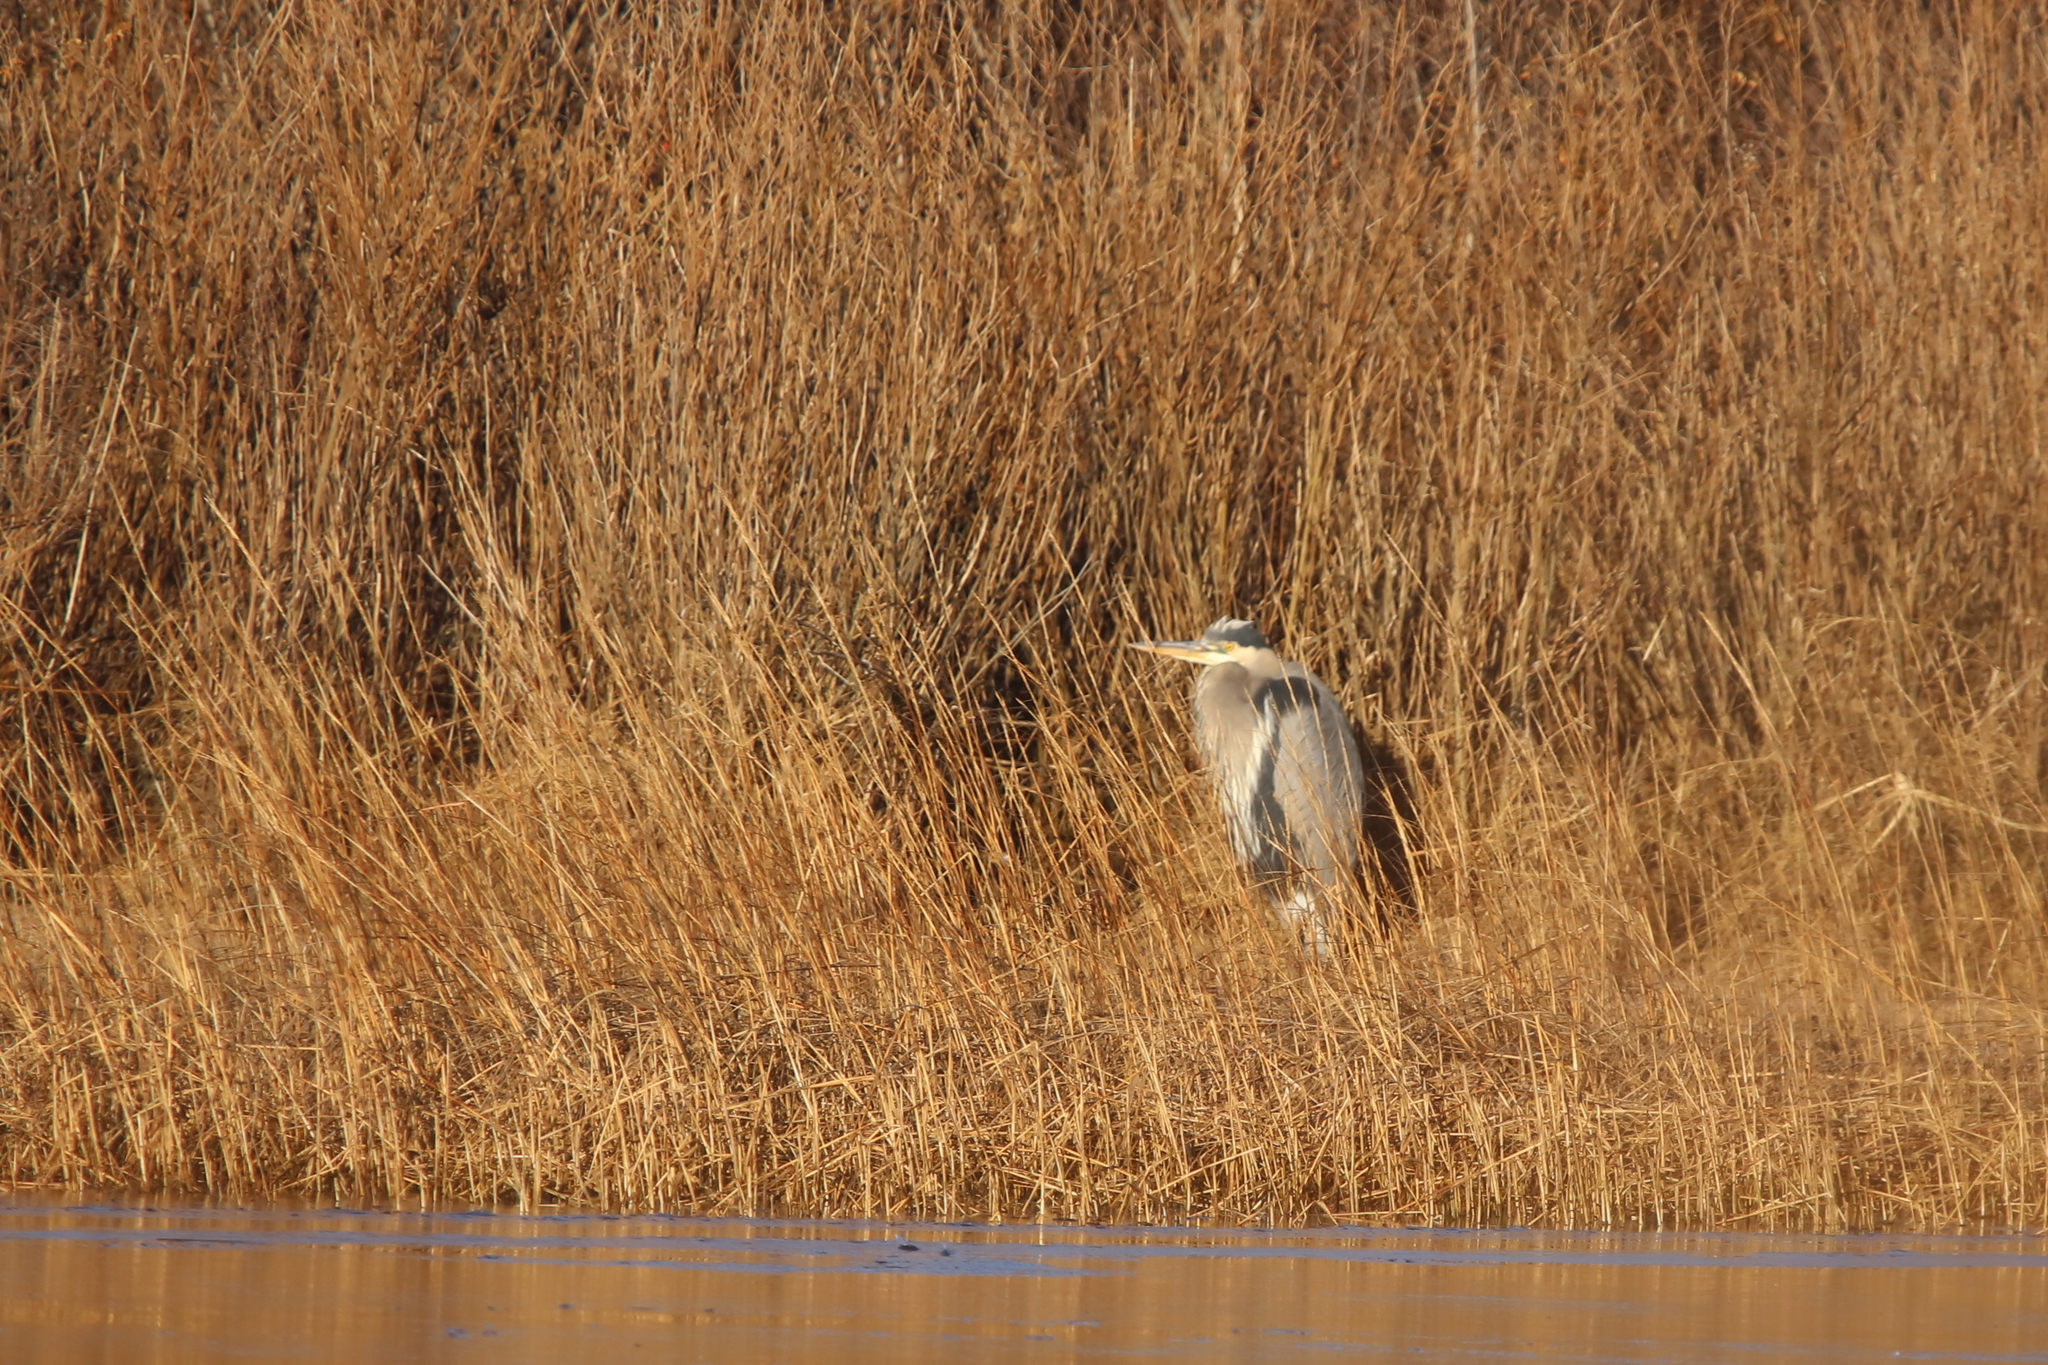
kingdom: Animalia
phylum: Chordata
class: Aves
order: Pelecaniformes
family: Ardeidae
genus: Ardea
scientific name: Ardea herodias
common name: Great blue heron
